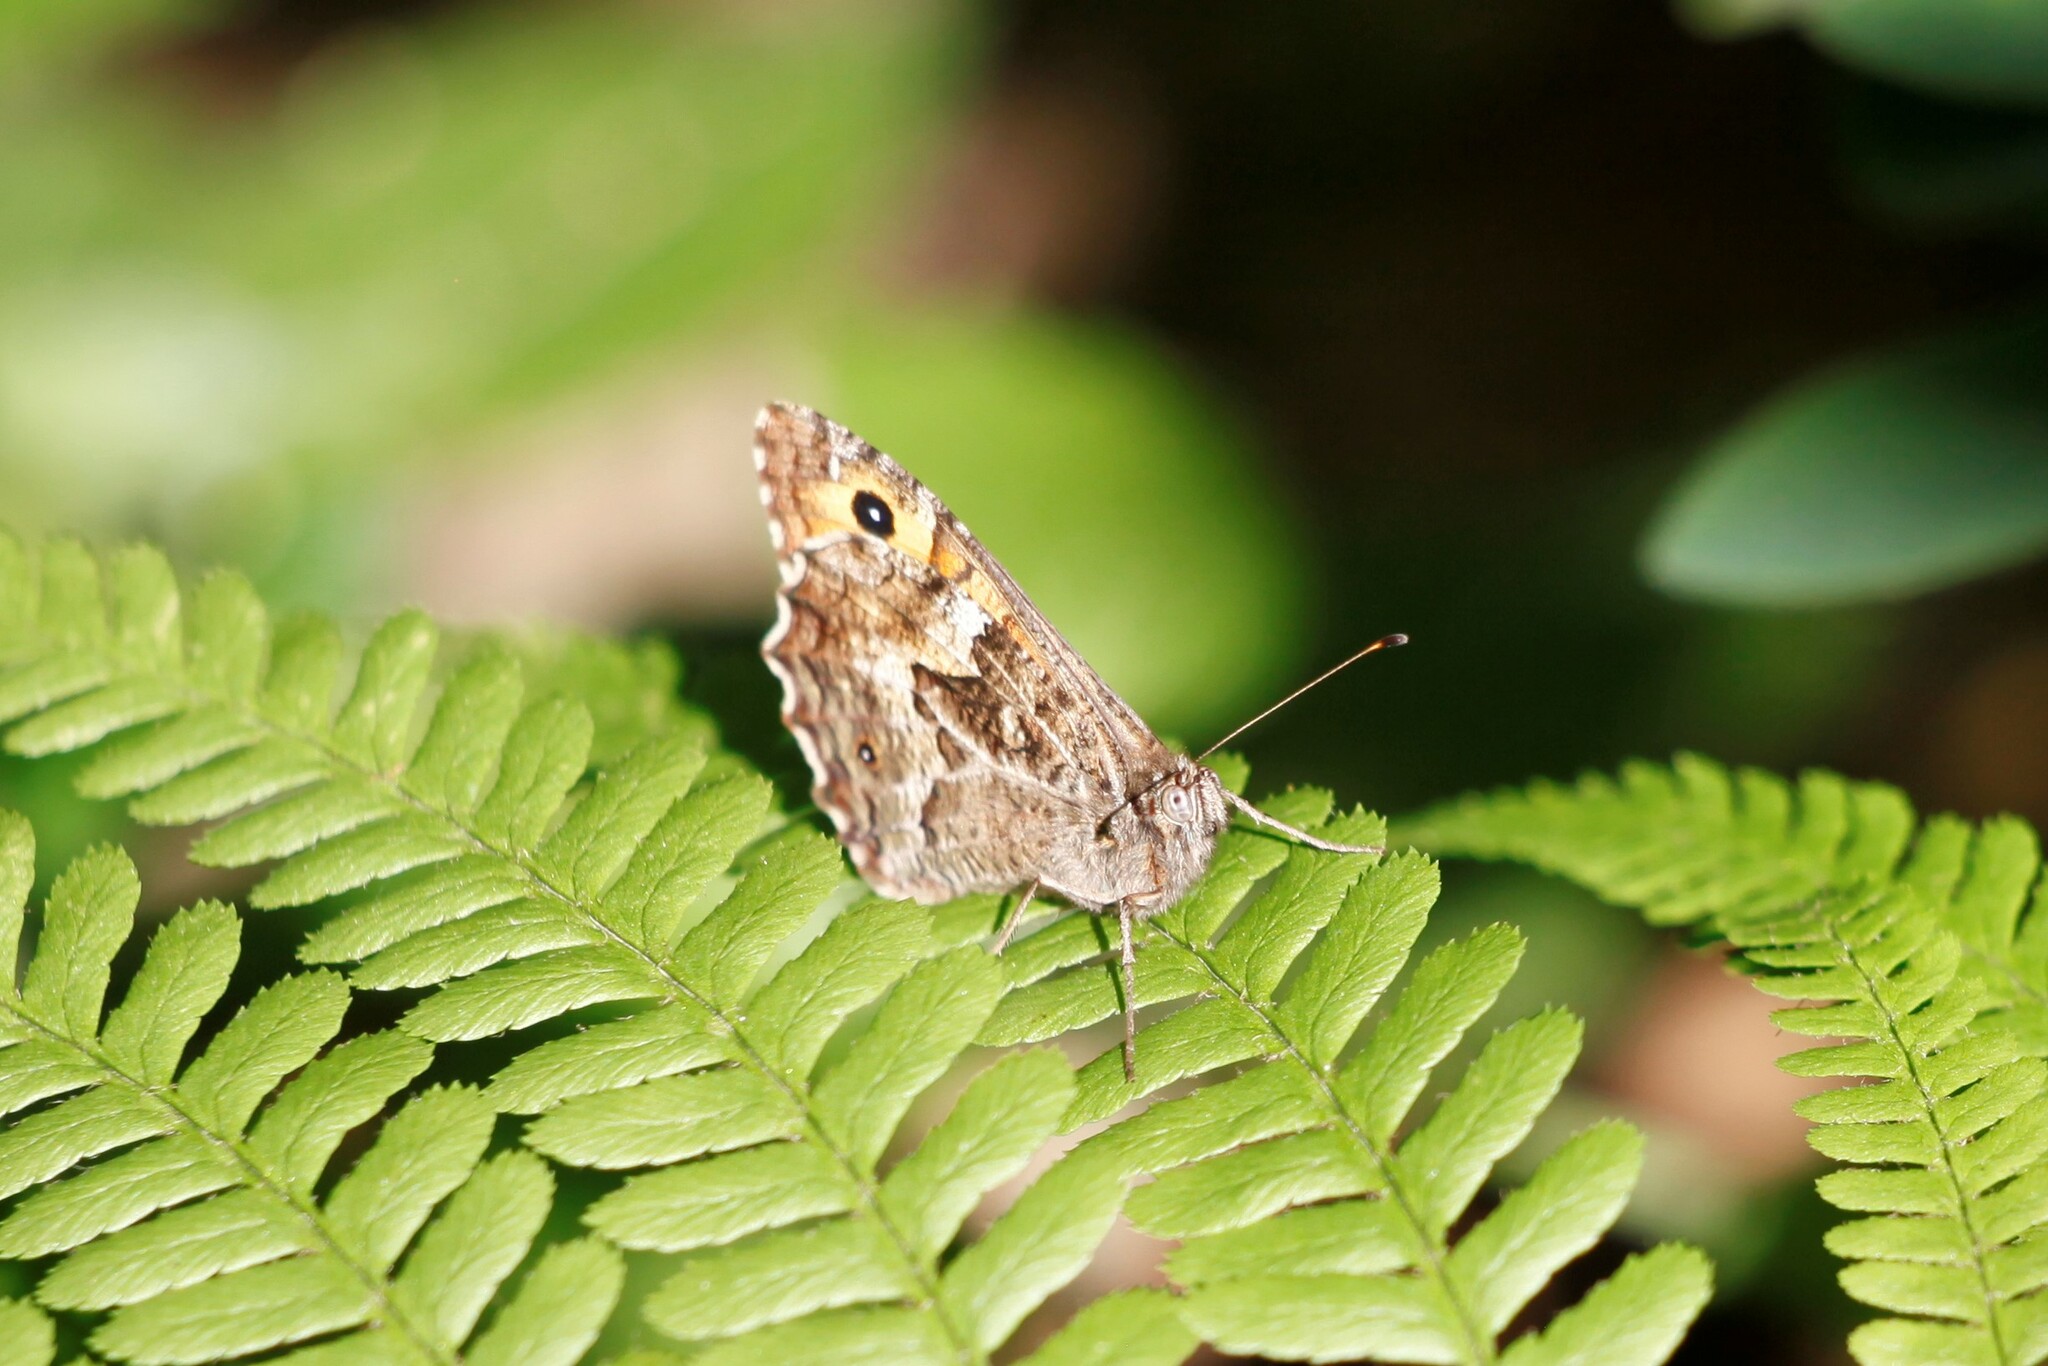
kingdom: Animalia
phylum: Arthropoda
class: Insecta
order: Lepidoptera
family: Nymphalidae
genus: Hipparchia
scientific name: Hipparchia semele
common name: Grayling
